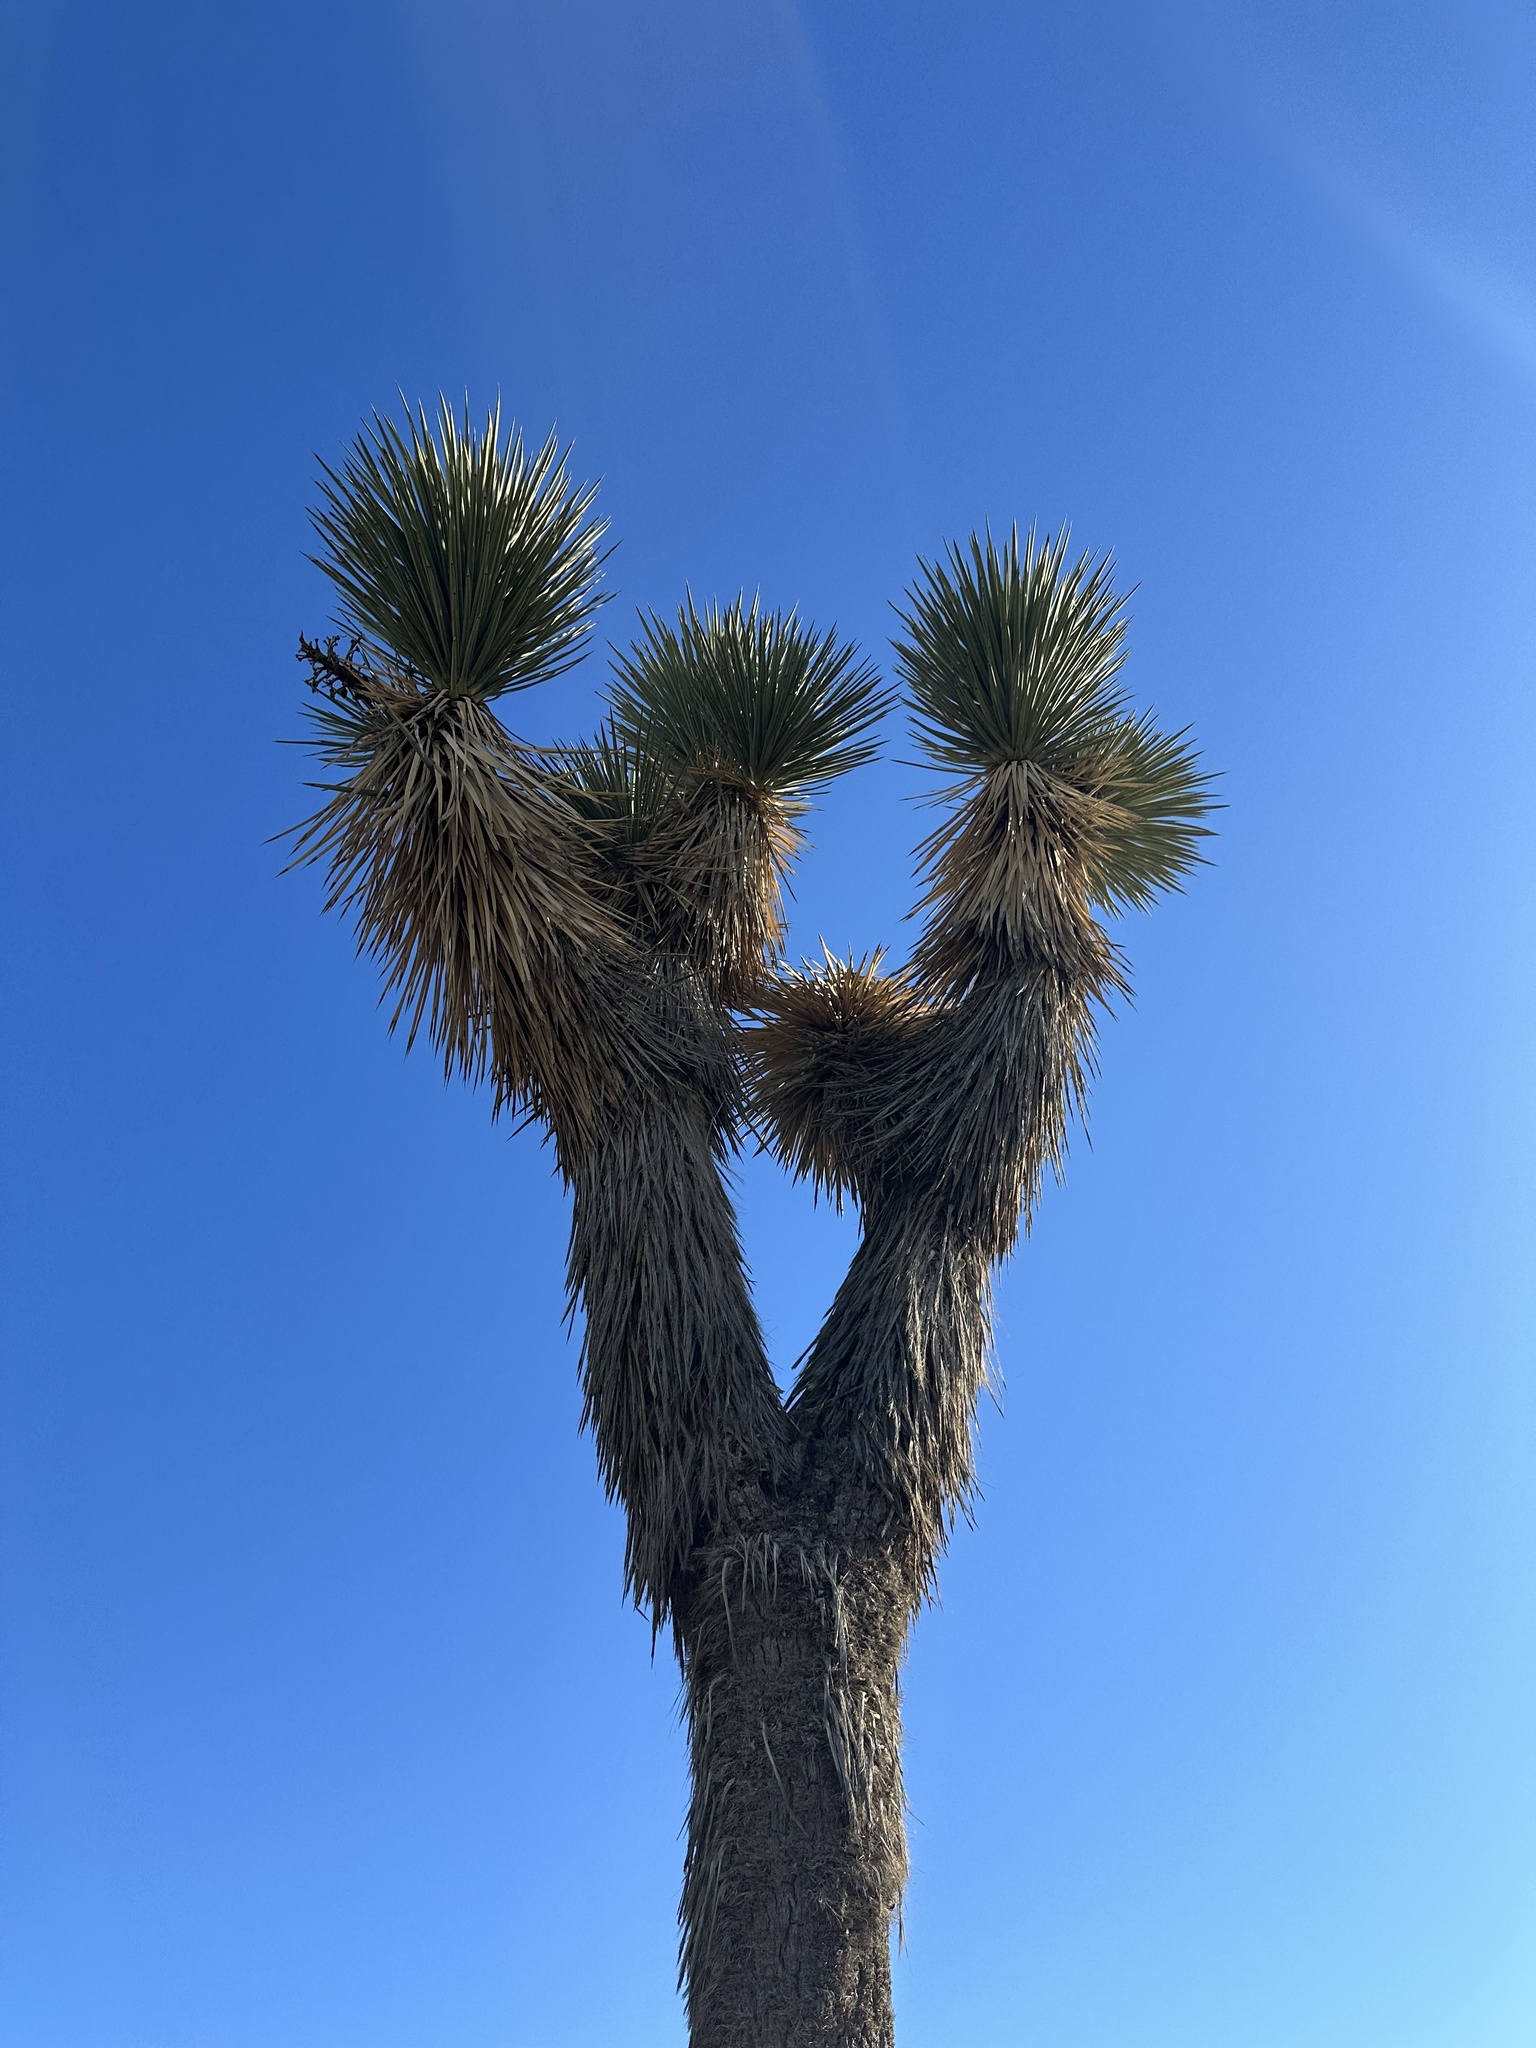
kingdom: Plantae
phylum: Tracheophyta
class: Liliopsida
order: Asparagales
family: Asparagaceae
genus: Yucca
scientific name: Yucca brevifolia
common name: Joshua tree
